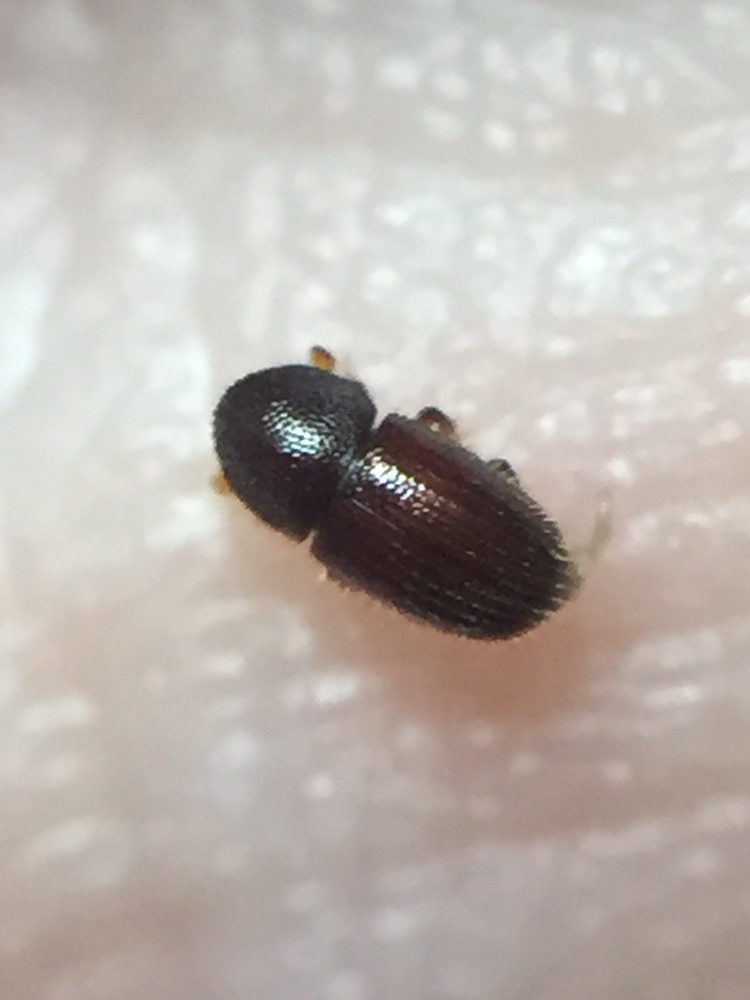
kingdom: Animalia
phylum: Arthropoda
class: Insecta
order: Coleoptera
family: Curculionidae
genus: Coccotrypes
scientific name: Coccotrypes dactyliperda
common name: Bark beetle
